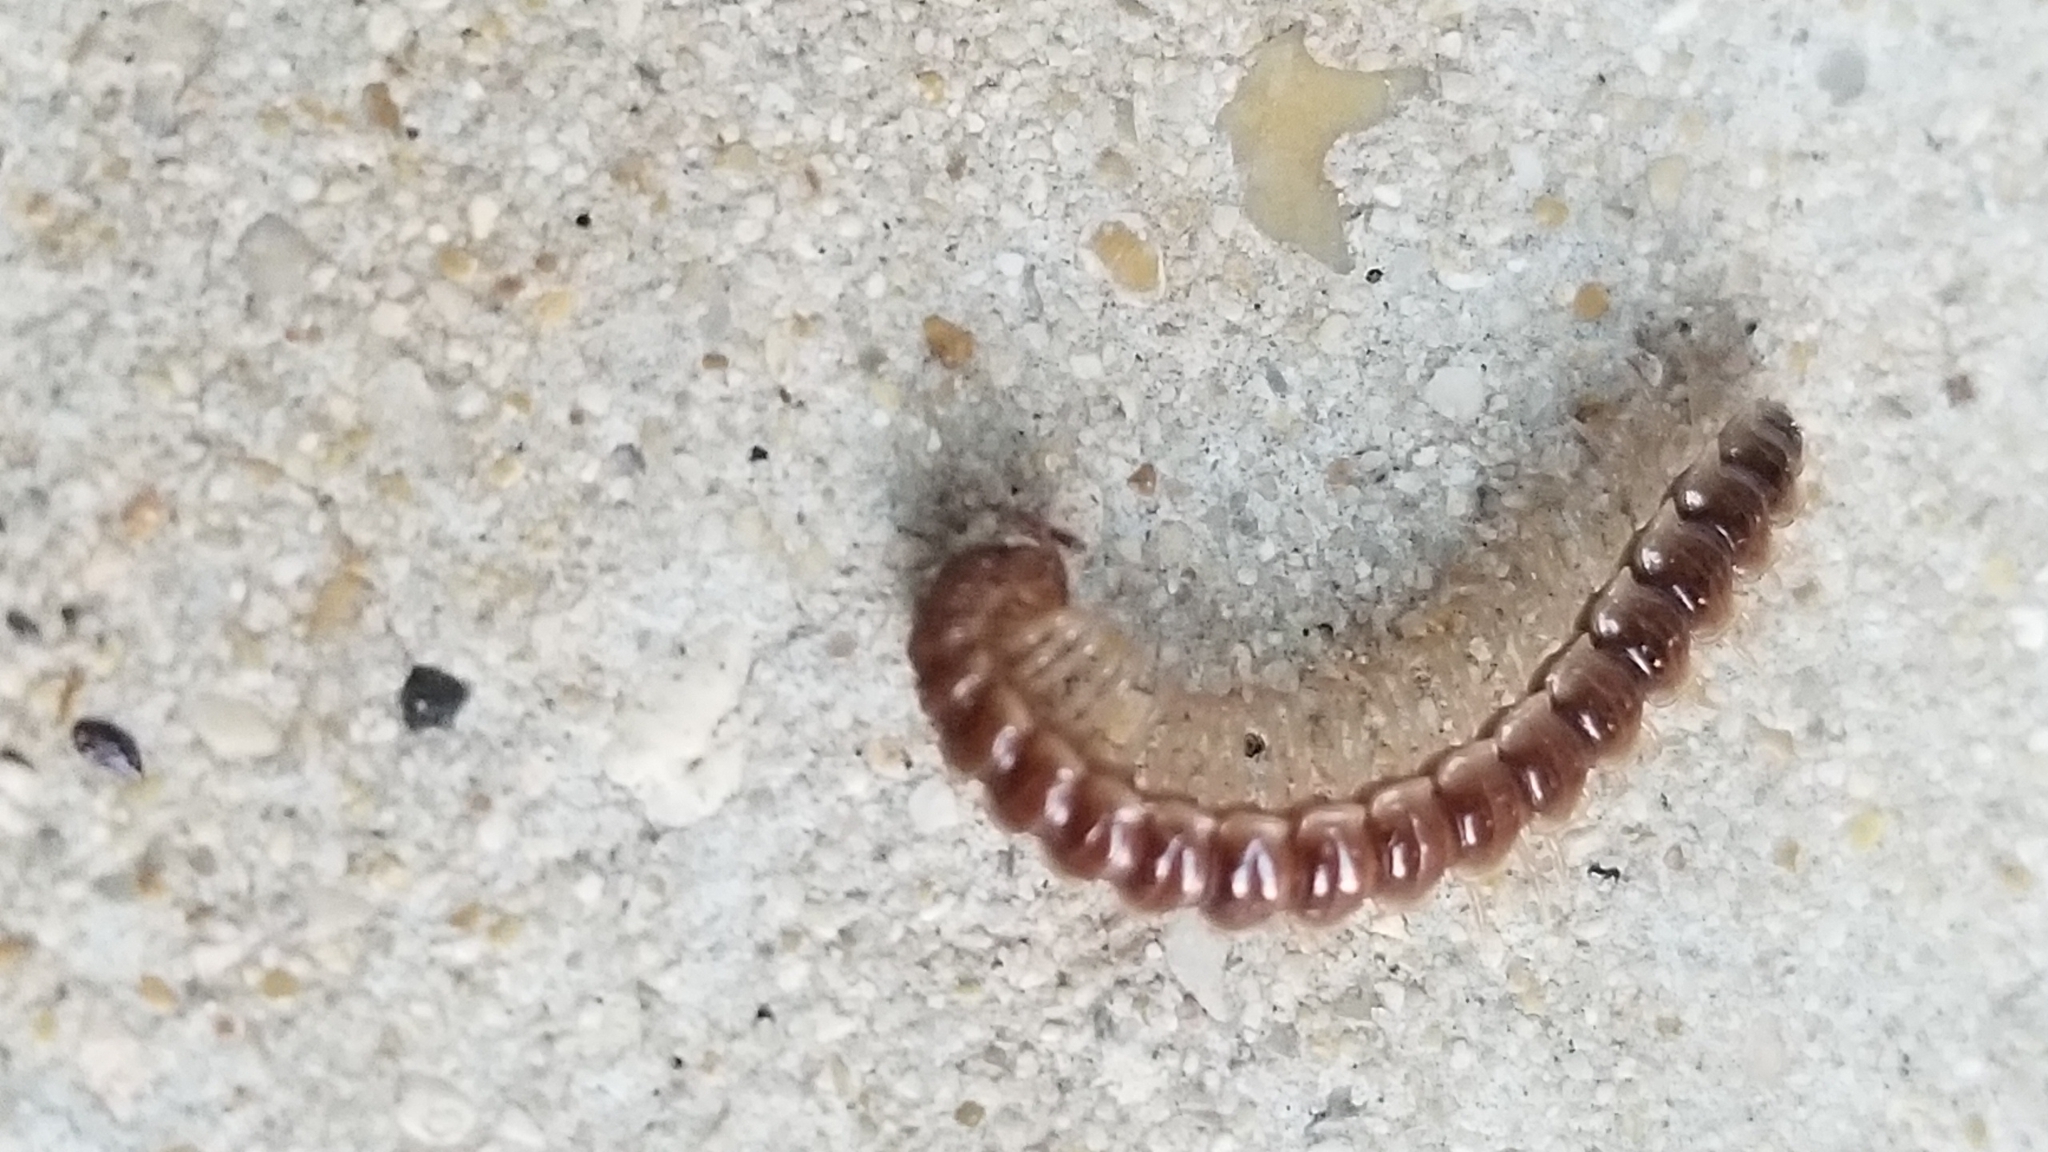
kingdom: Animalia
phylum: Arthropoda
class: Diplopoda
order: Polydesmida
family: Paradoxosomatidae
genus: Oxidus
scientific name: Oxidus gracilis
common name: Greenhouse millipede
